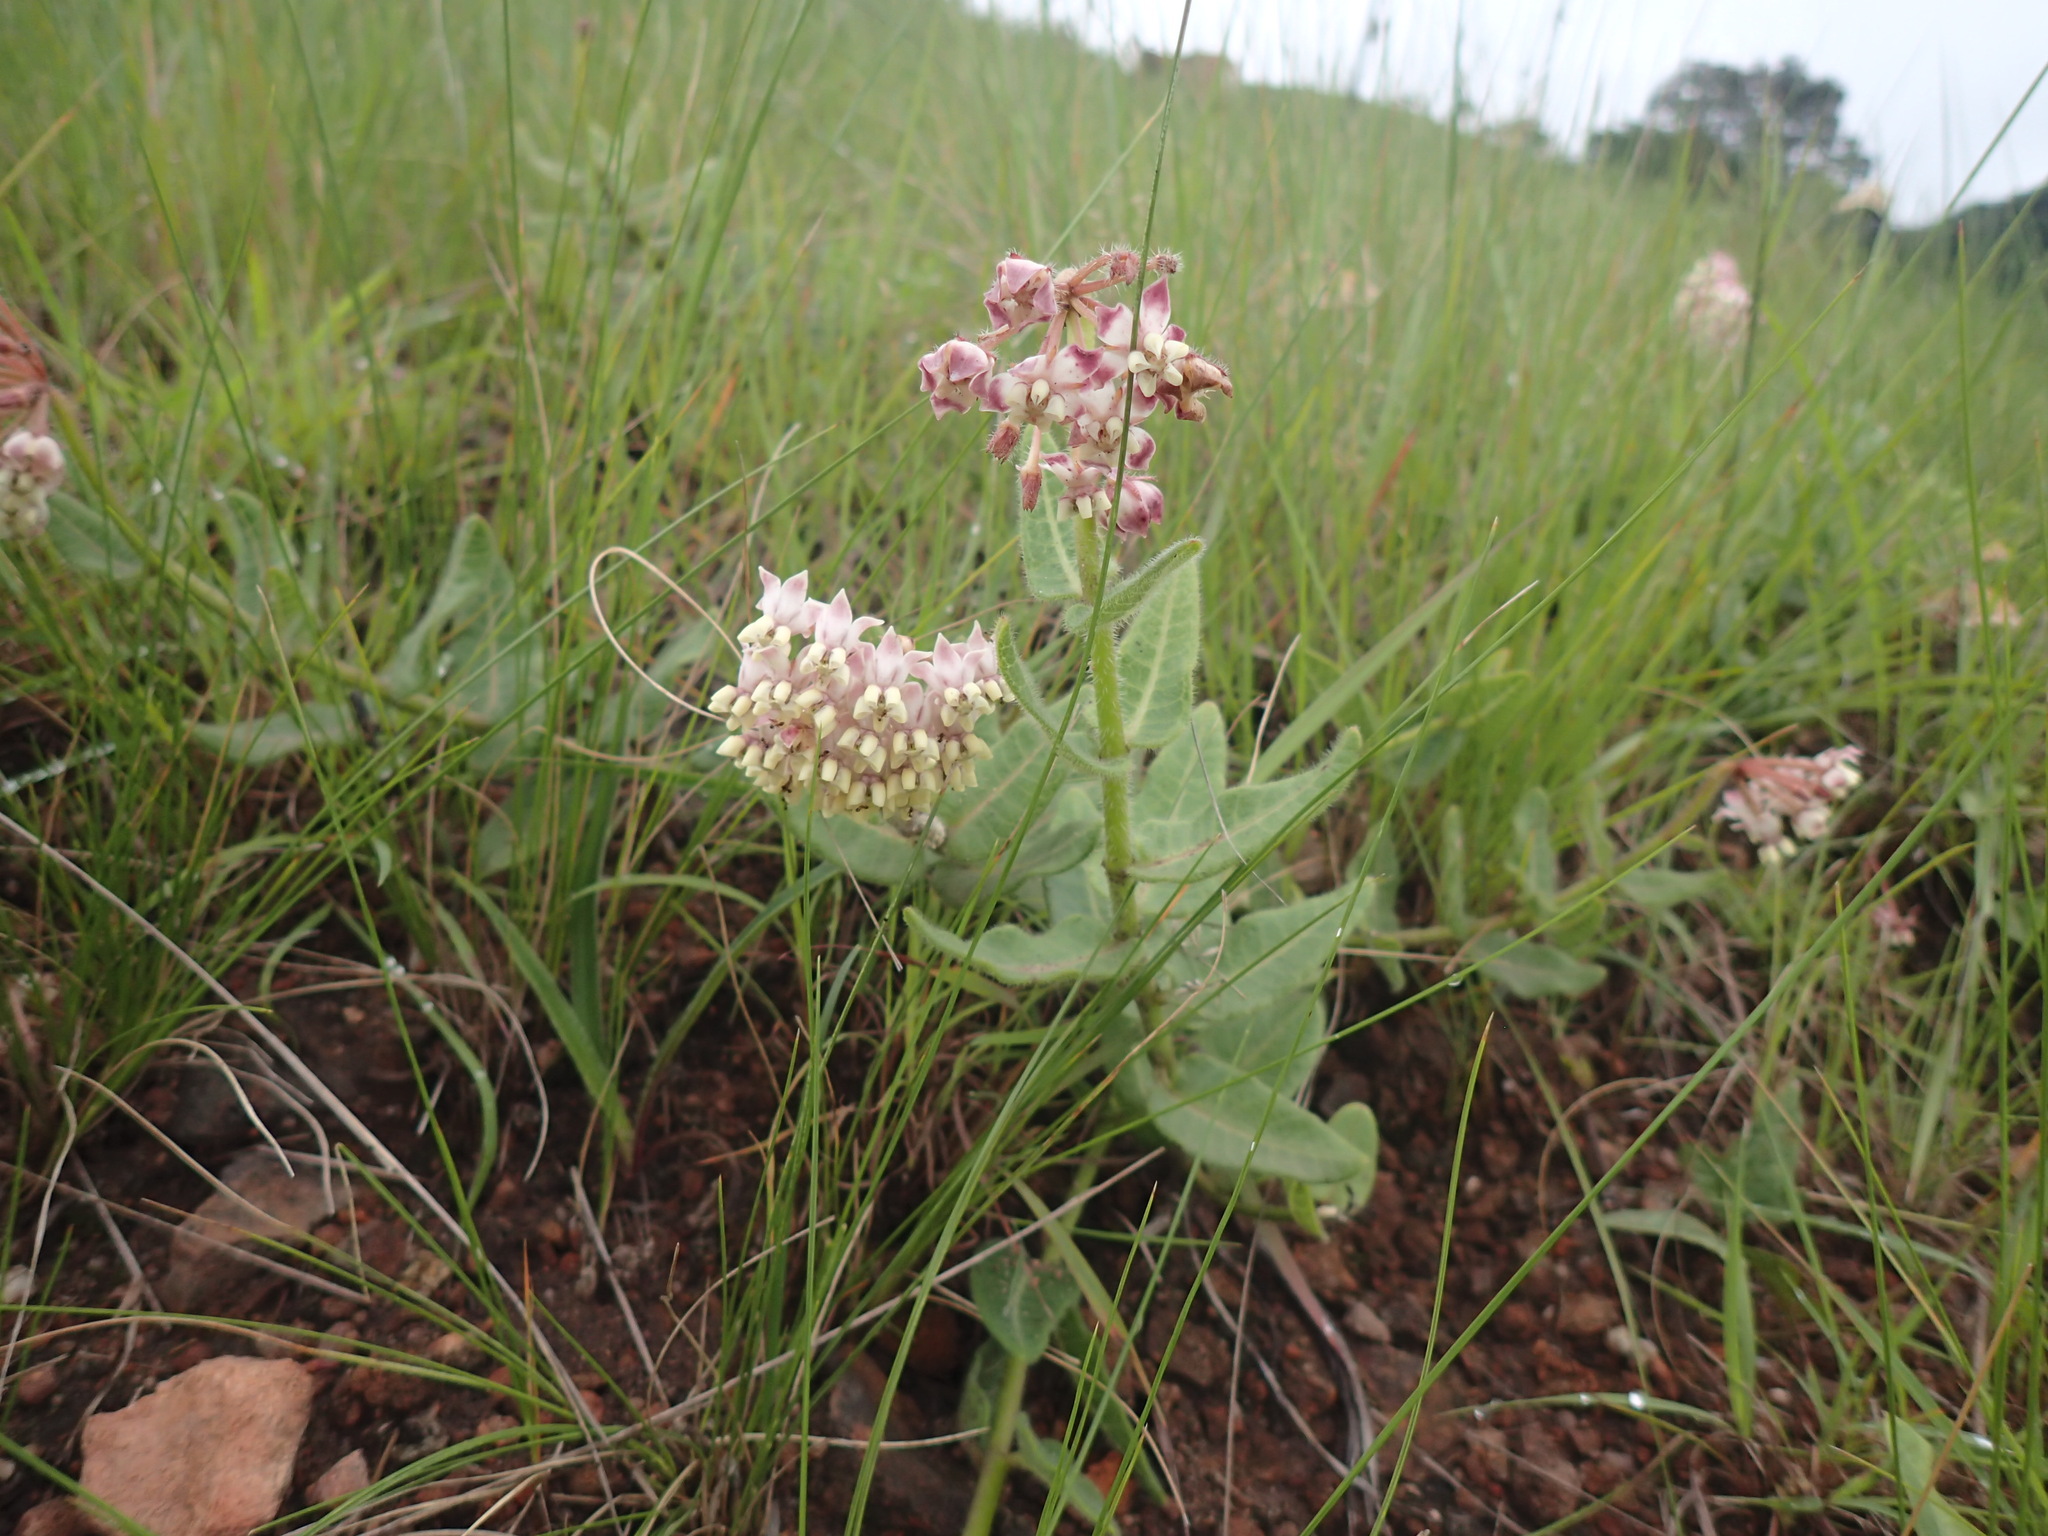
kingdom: Plantae
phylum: Tracheophyta
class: Magnoliopsida
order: Gentianales
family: Apocynaceae
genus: Asclepias
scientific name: Asclepias albens
